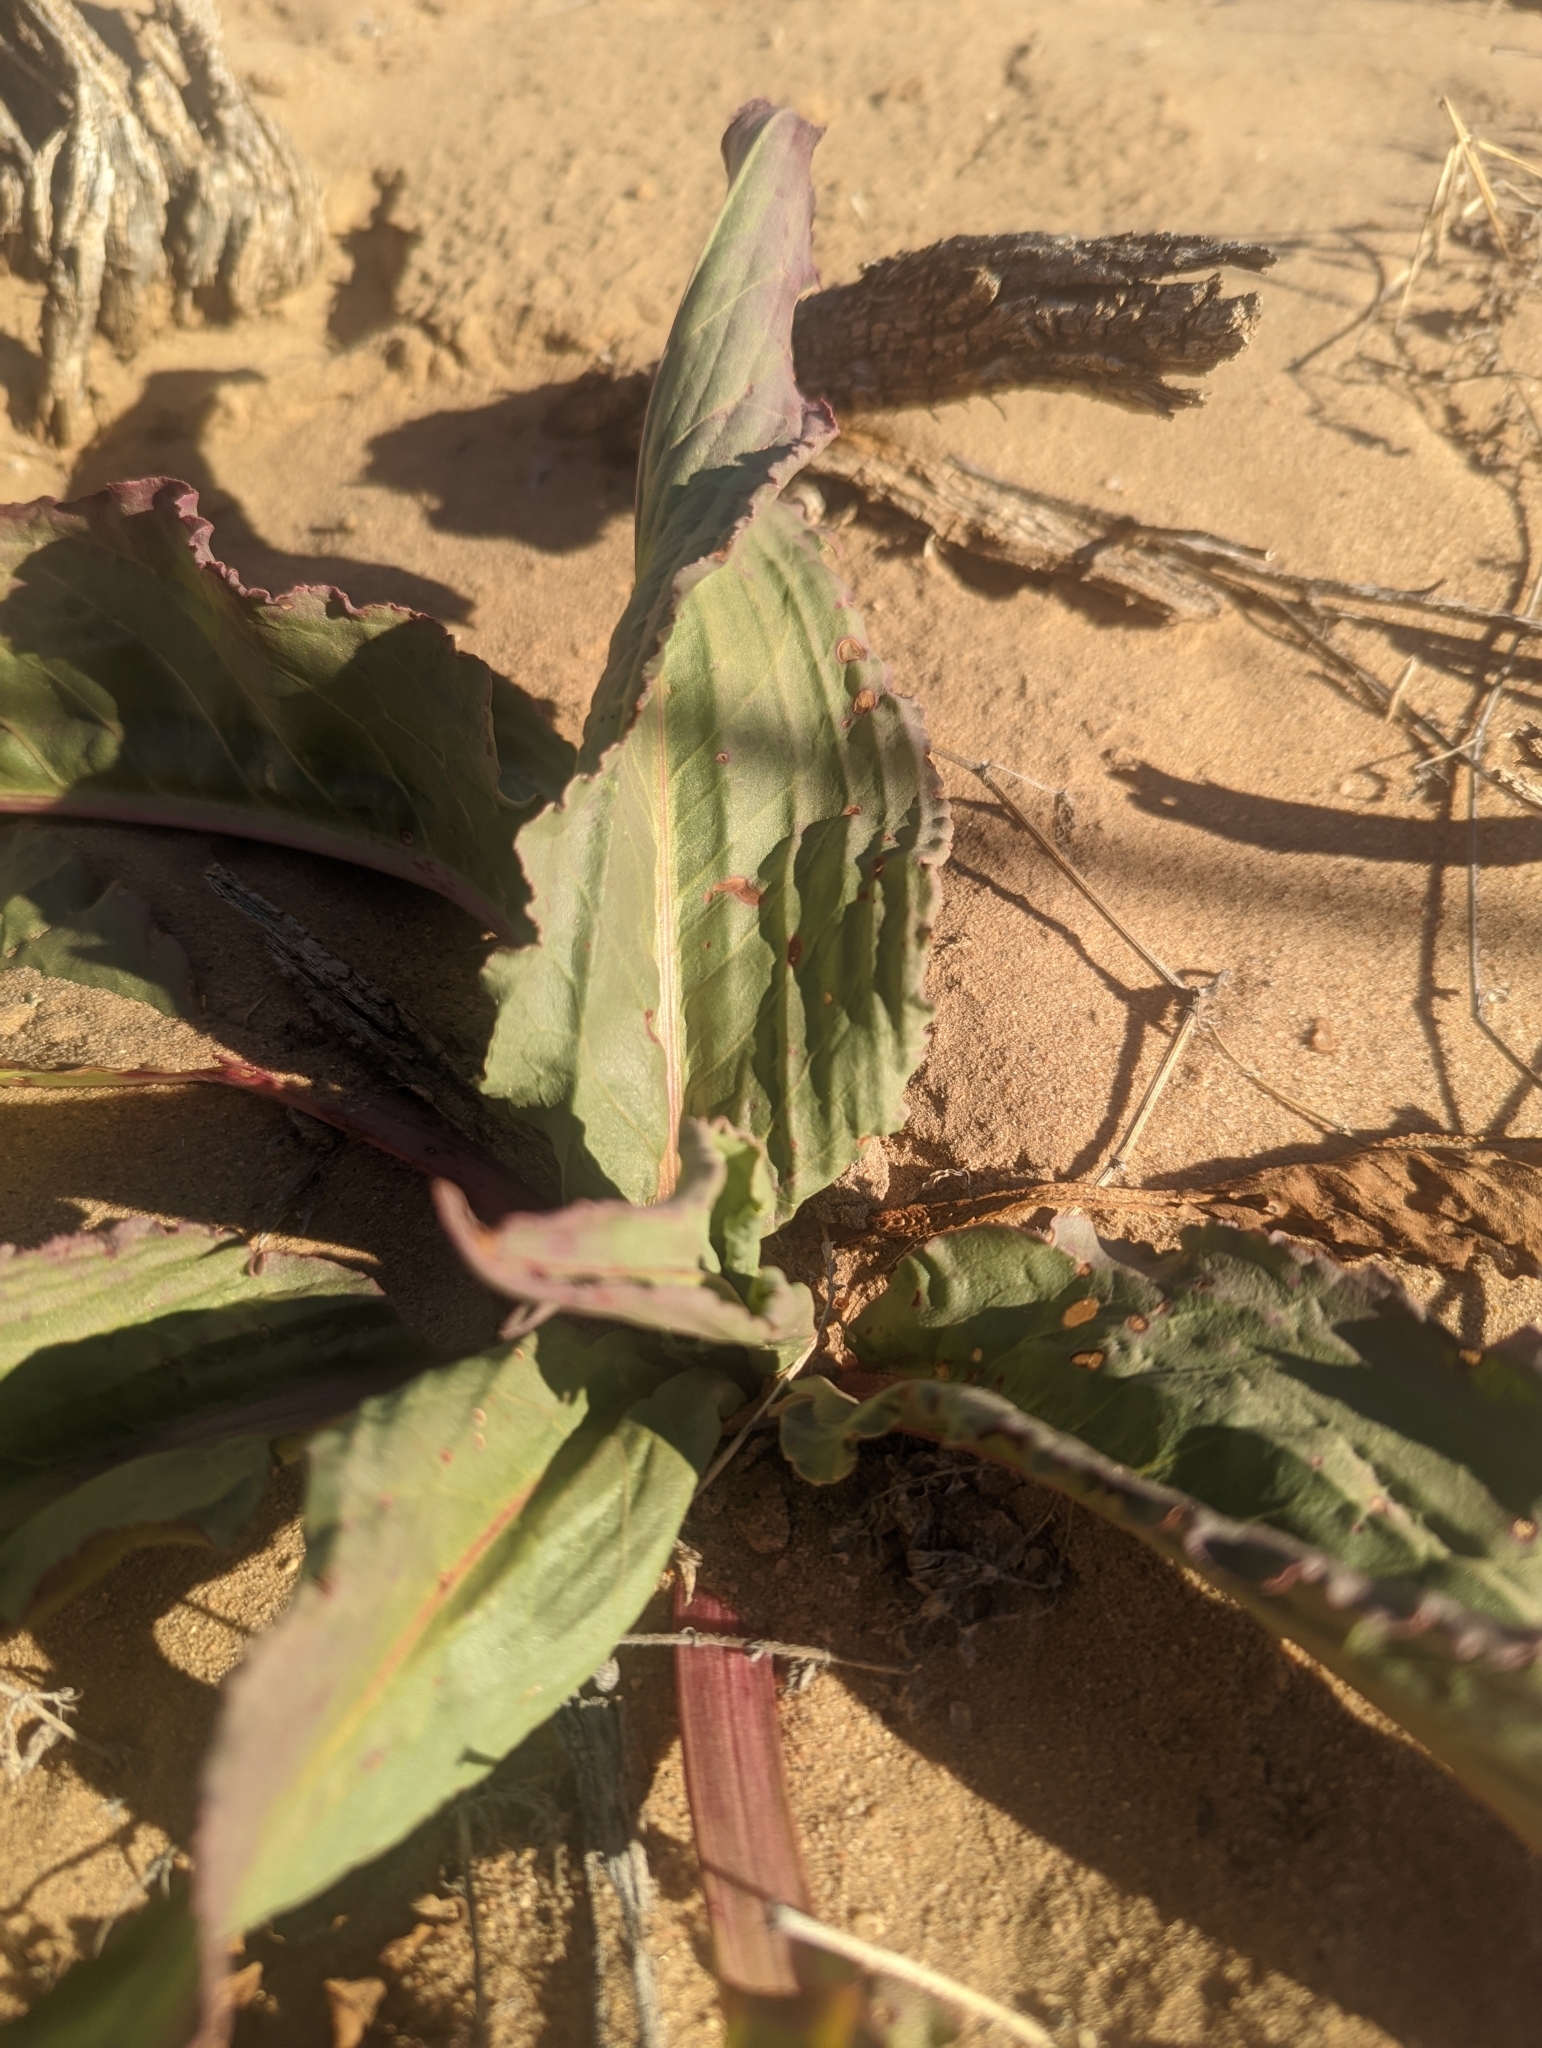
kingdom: Plantae
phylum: Tracheophyta
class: Magnoliopsida
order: Caryophyllales
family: Polygonaceae
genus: Rumex
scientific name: Rumex hymenosepalus
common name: Ganagra
